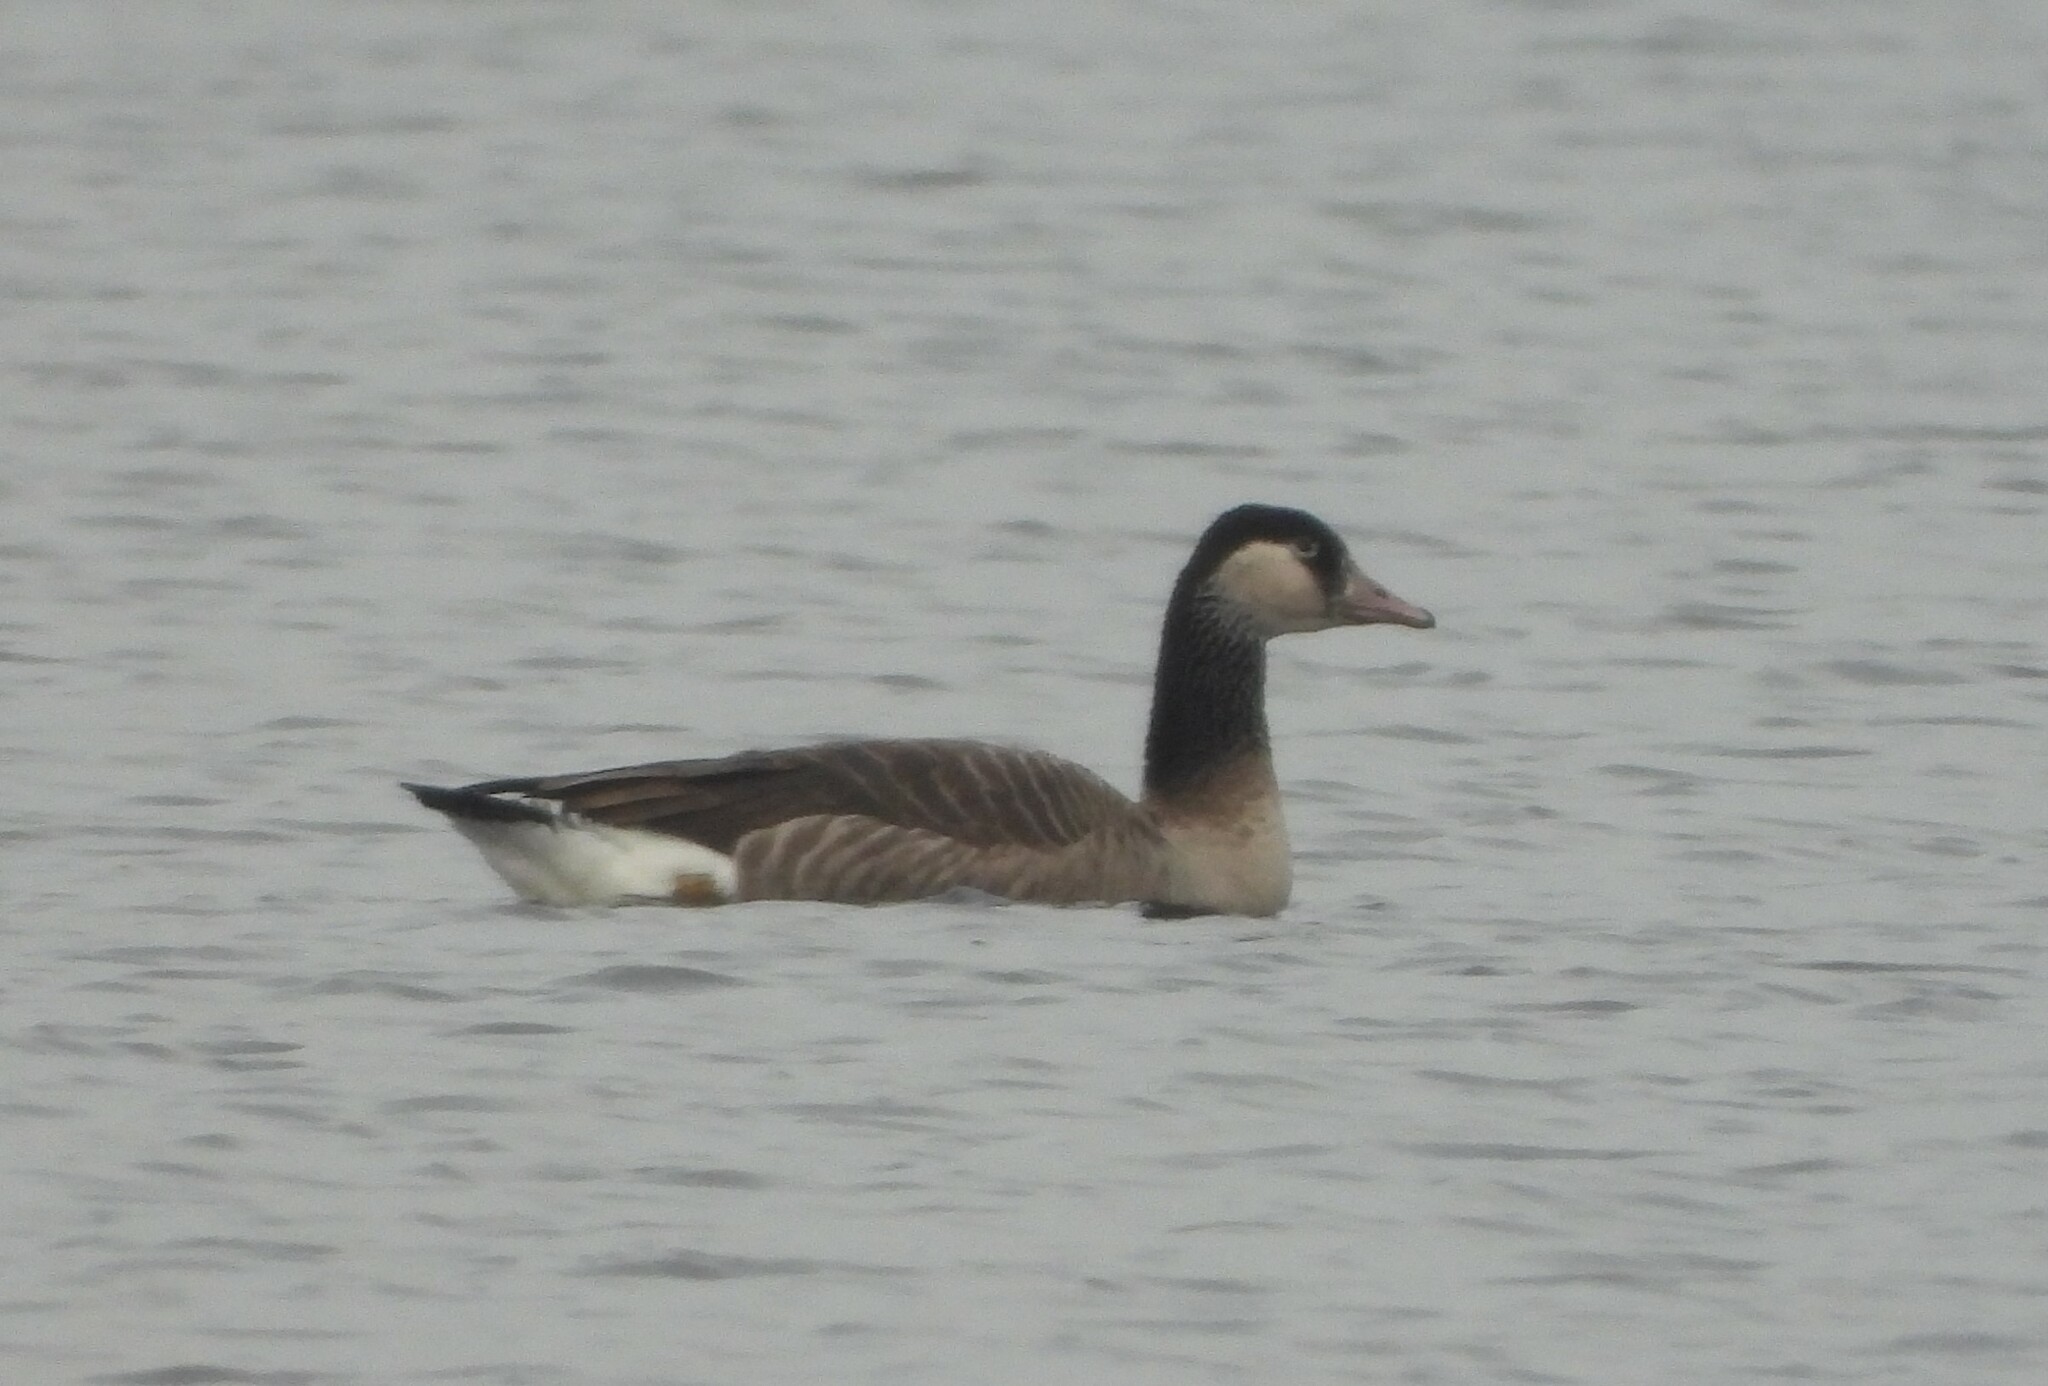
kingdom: Animalia
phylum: Chordata
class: Aves
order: Anseriformes
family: Anatidae
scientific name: Anatidae
